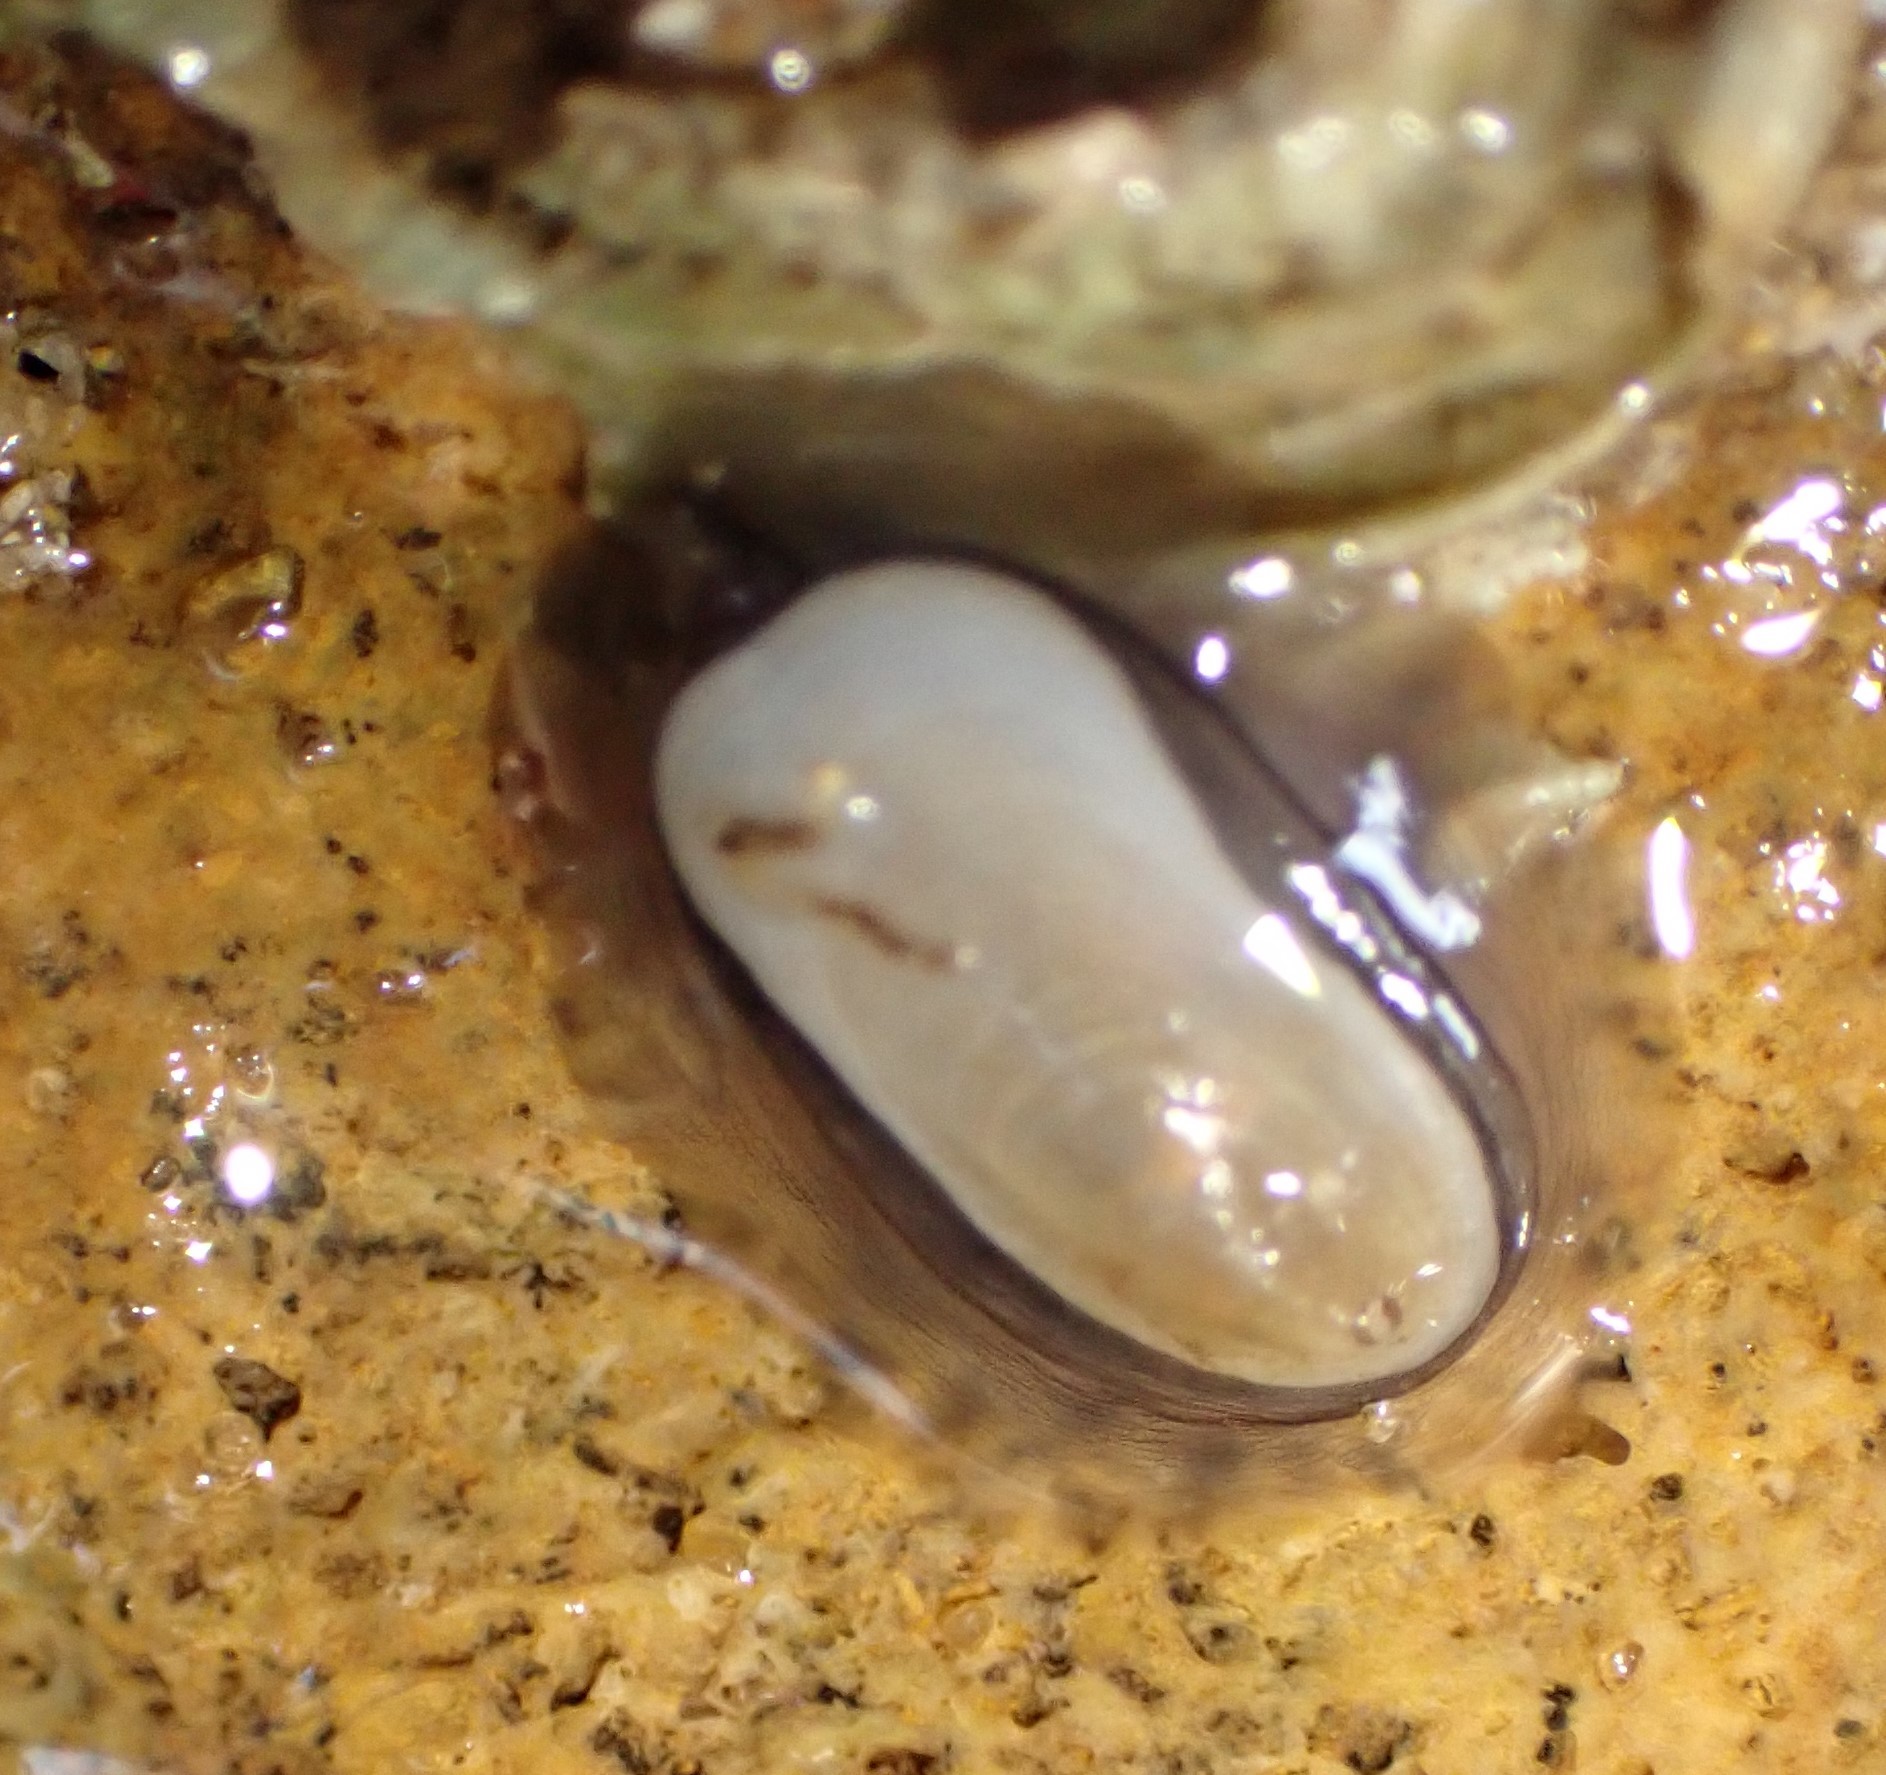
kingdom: Animalia
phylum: Mollusca
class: Gastropoda
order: Lepetellida
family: Fissurellidae
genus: Scutus
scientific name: Scutus antipodes
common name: Duckbill shell
